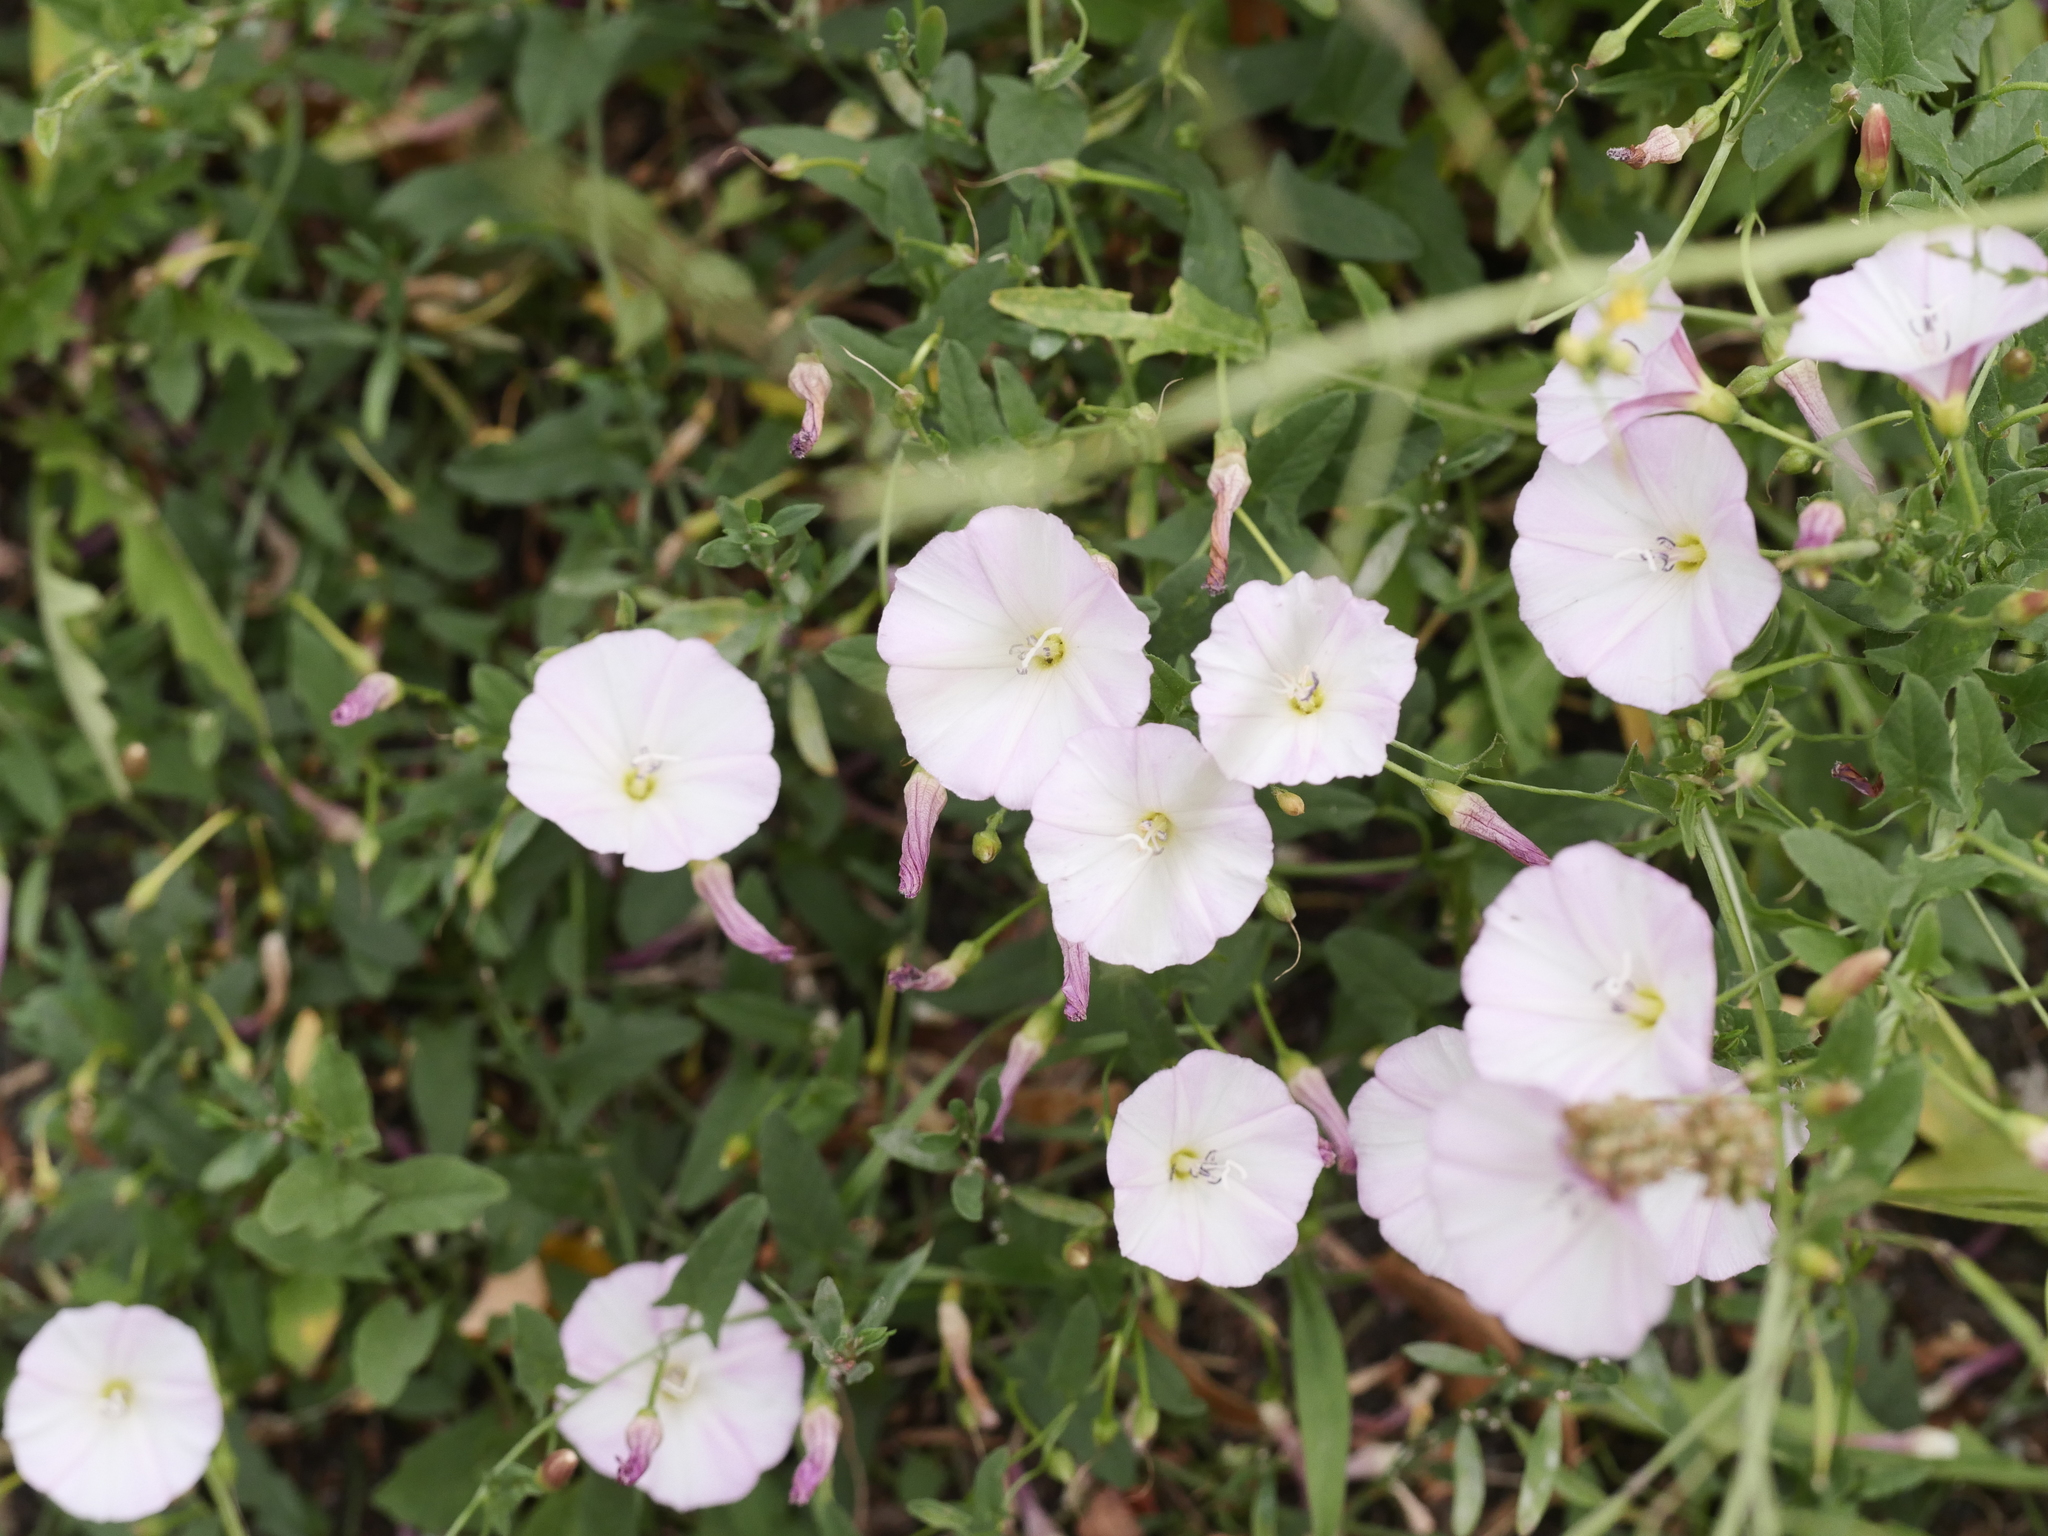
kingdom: Plantae
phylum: Tracheophyta
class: Magnoliopsida
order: Solanales
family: Convolvulaceae
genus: Convolvulus
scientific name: Convolvulus arvensis
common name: Field bindweed
